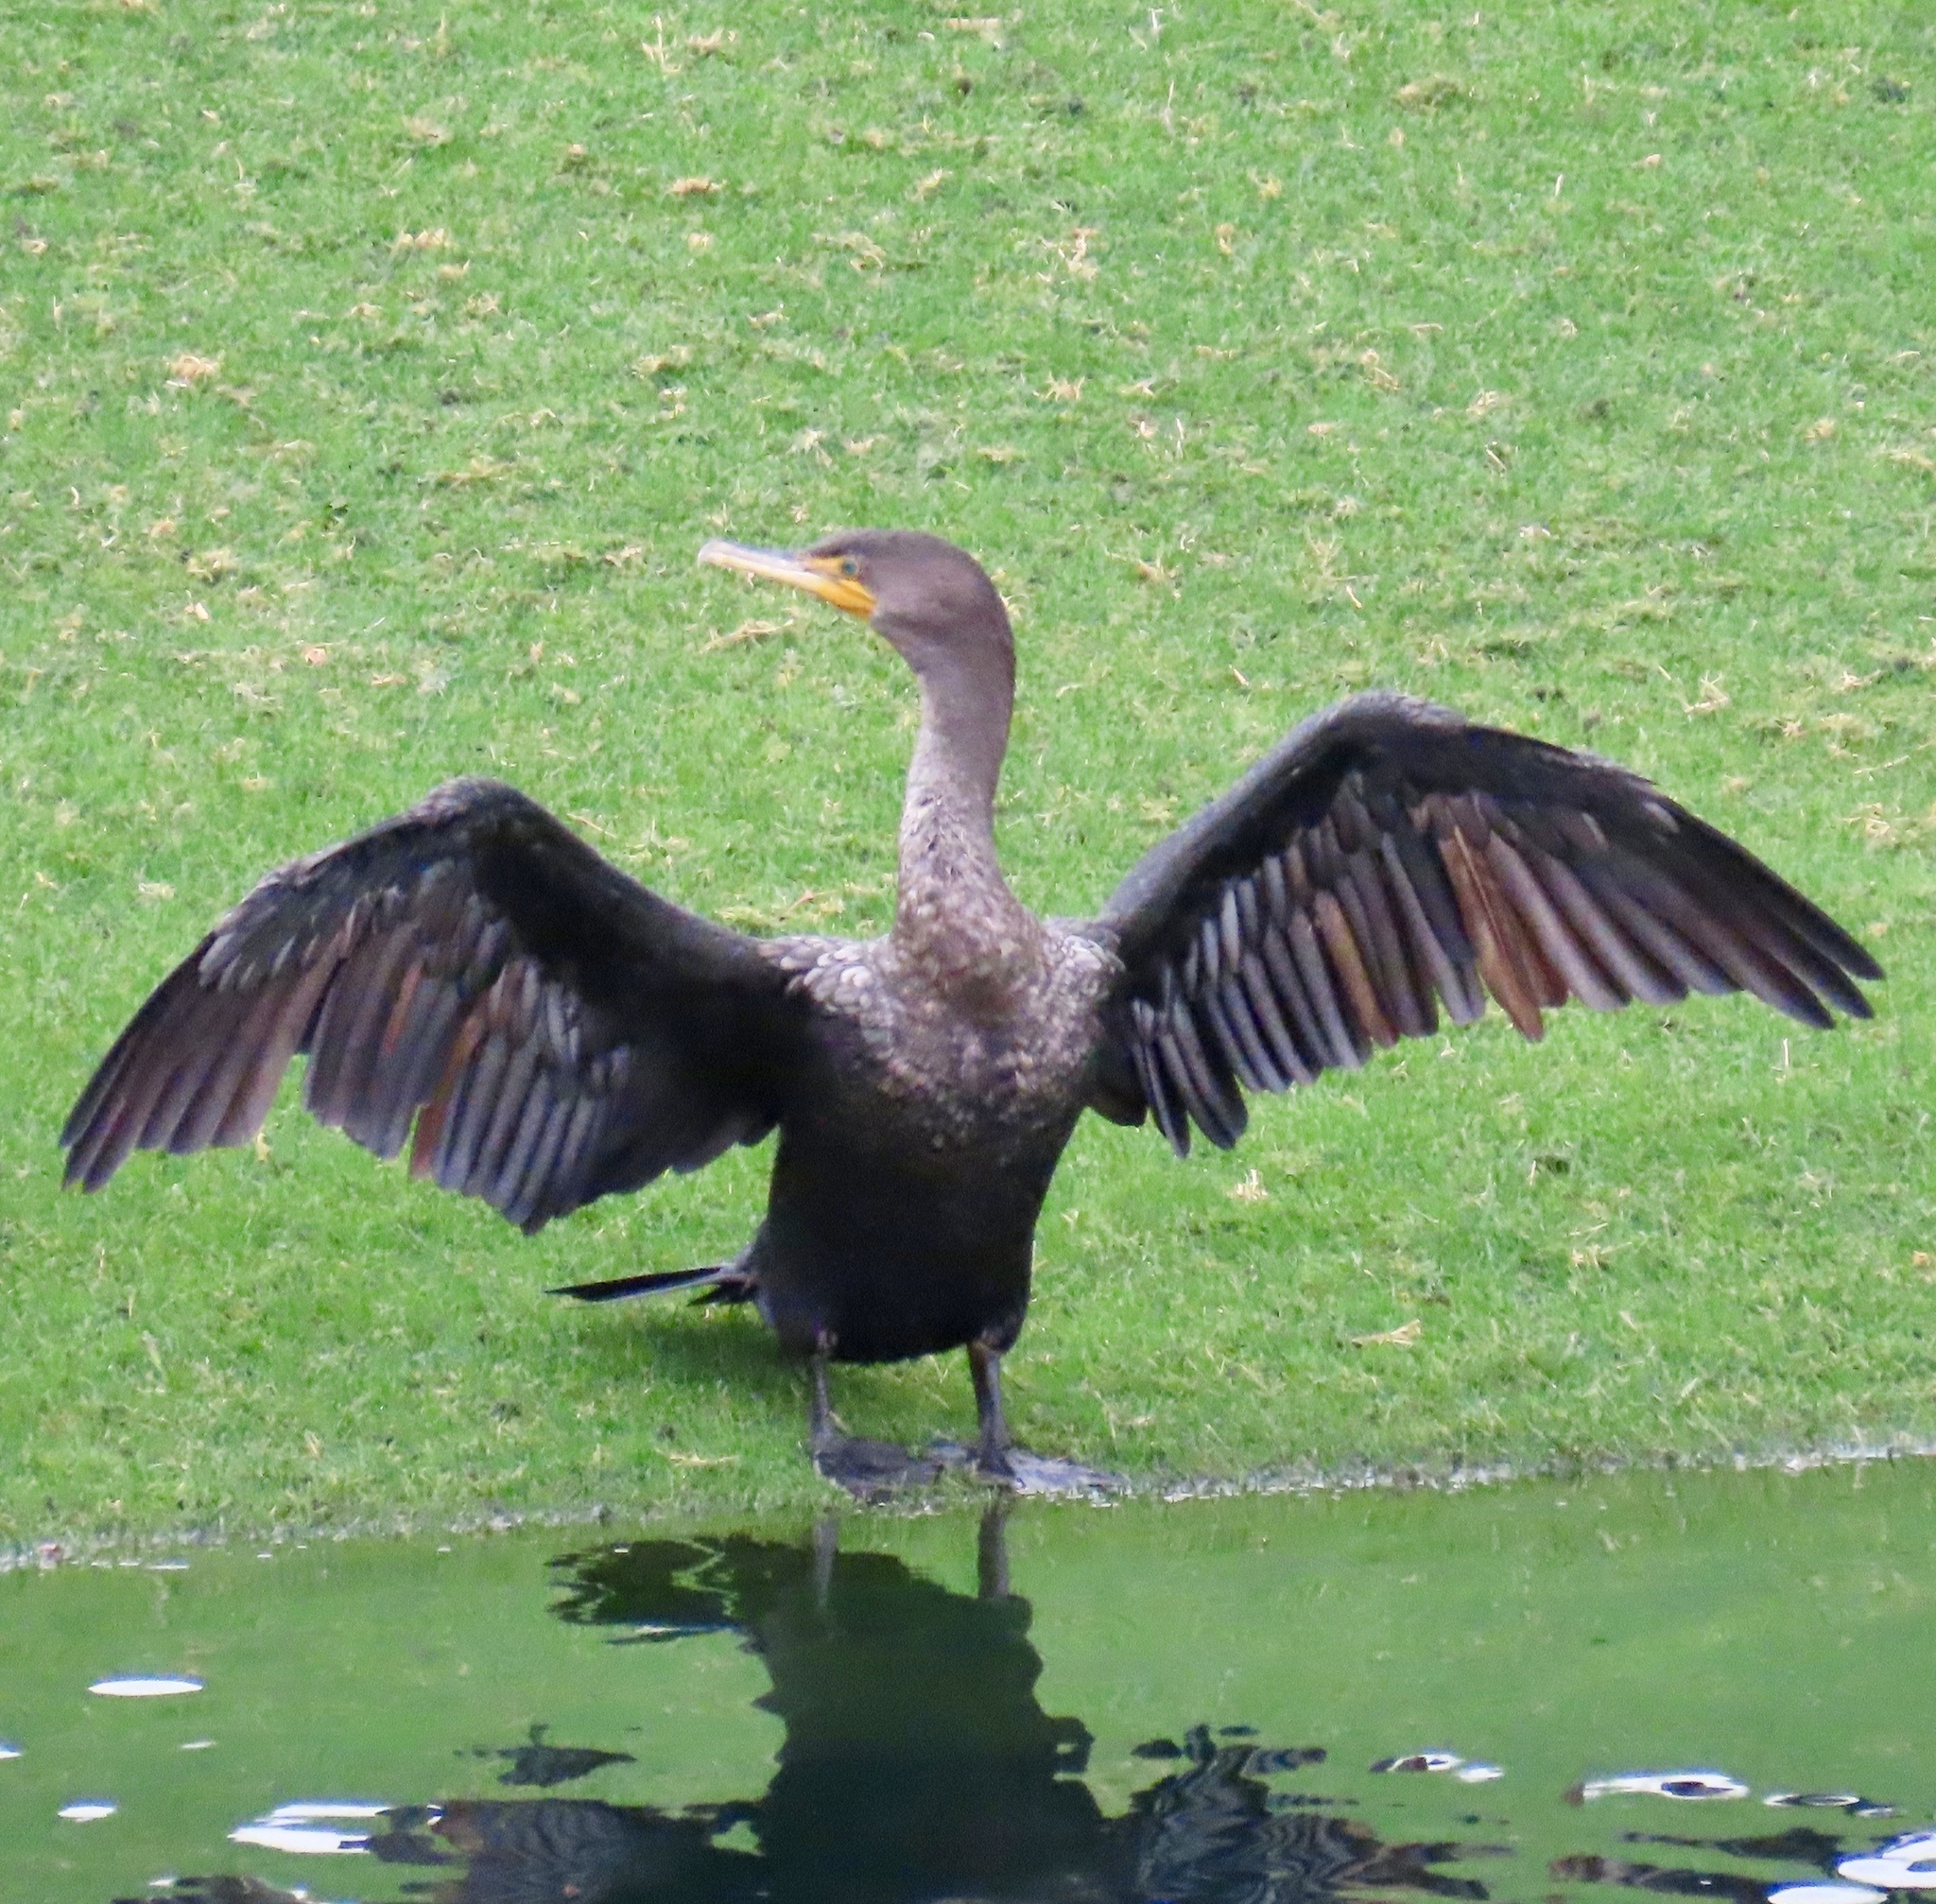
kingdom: Animalia
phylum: Chordata
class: Aves
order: Suliformes
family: Phalacrocoracidae
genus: Phalacrocorax
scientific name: Phalacrocorax auritus
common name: Double-crested cormorant
